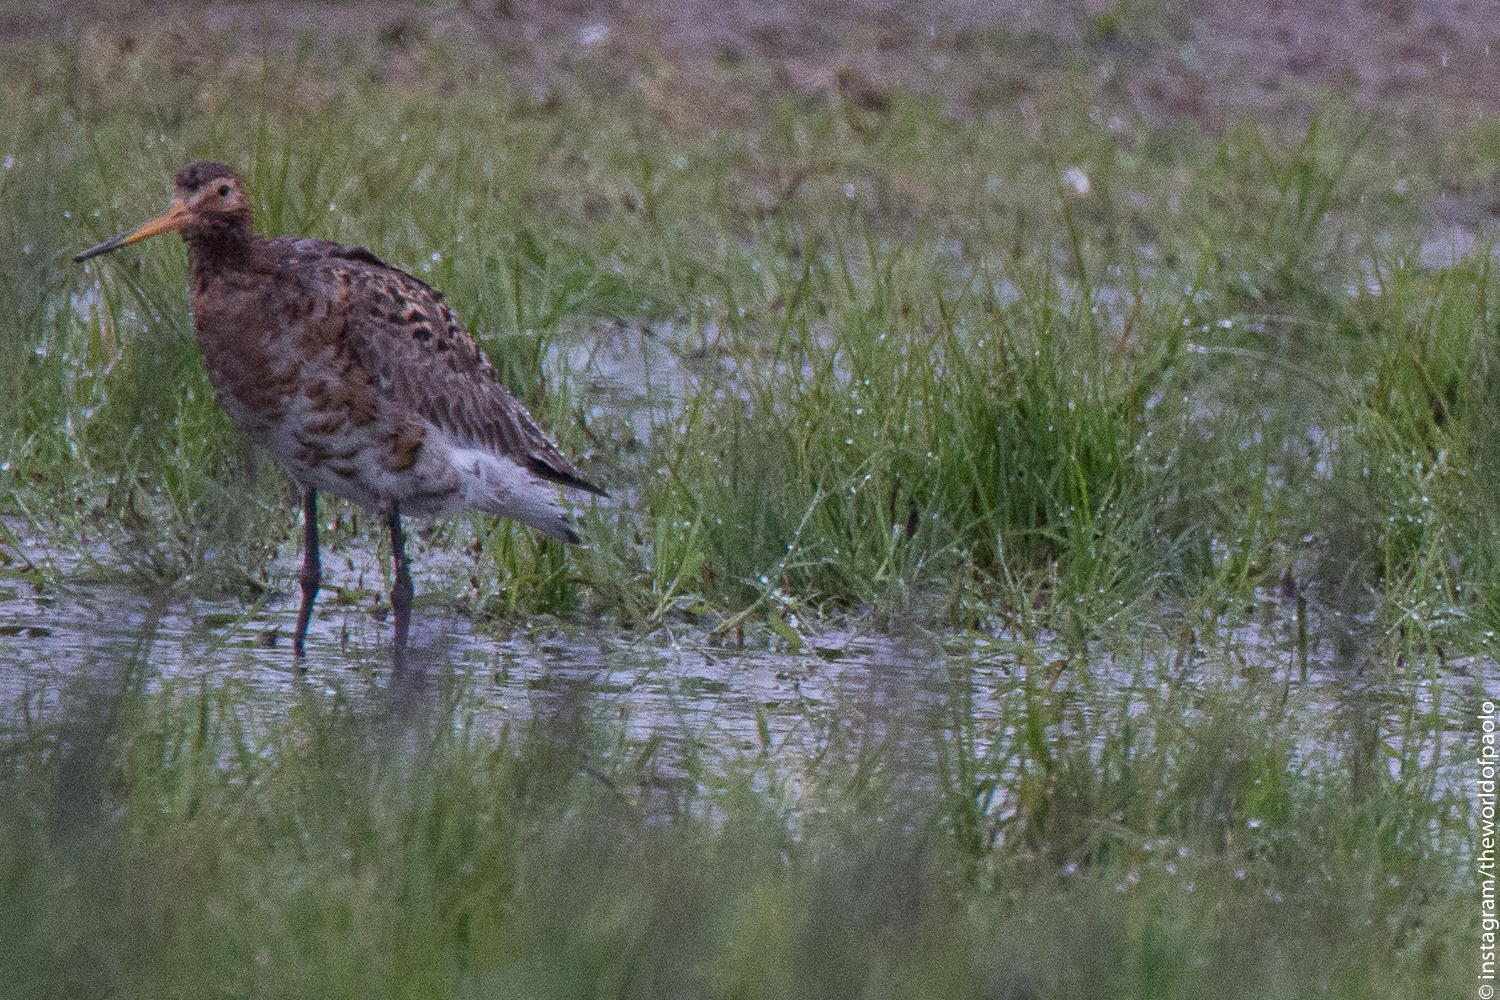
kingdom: Animalia
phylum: Chordata
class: Aves
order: Charadriiformes
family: Scolopacidae
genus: Limosa
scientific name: Limosa limosa
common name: Black-tailed godwit
